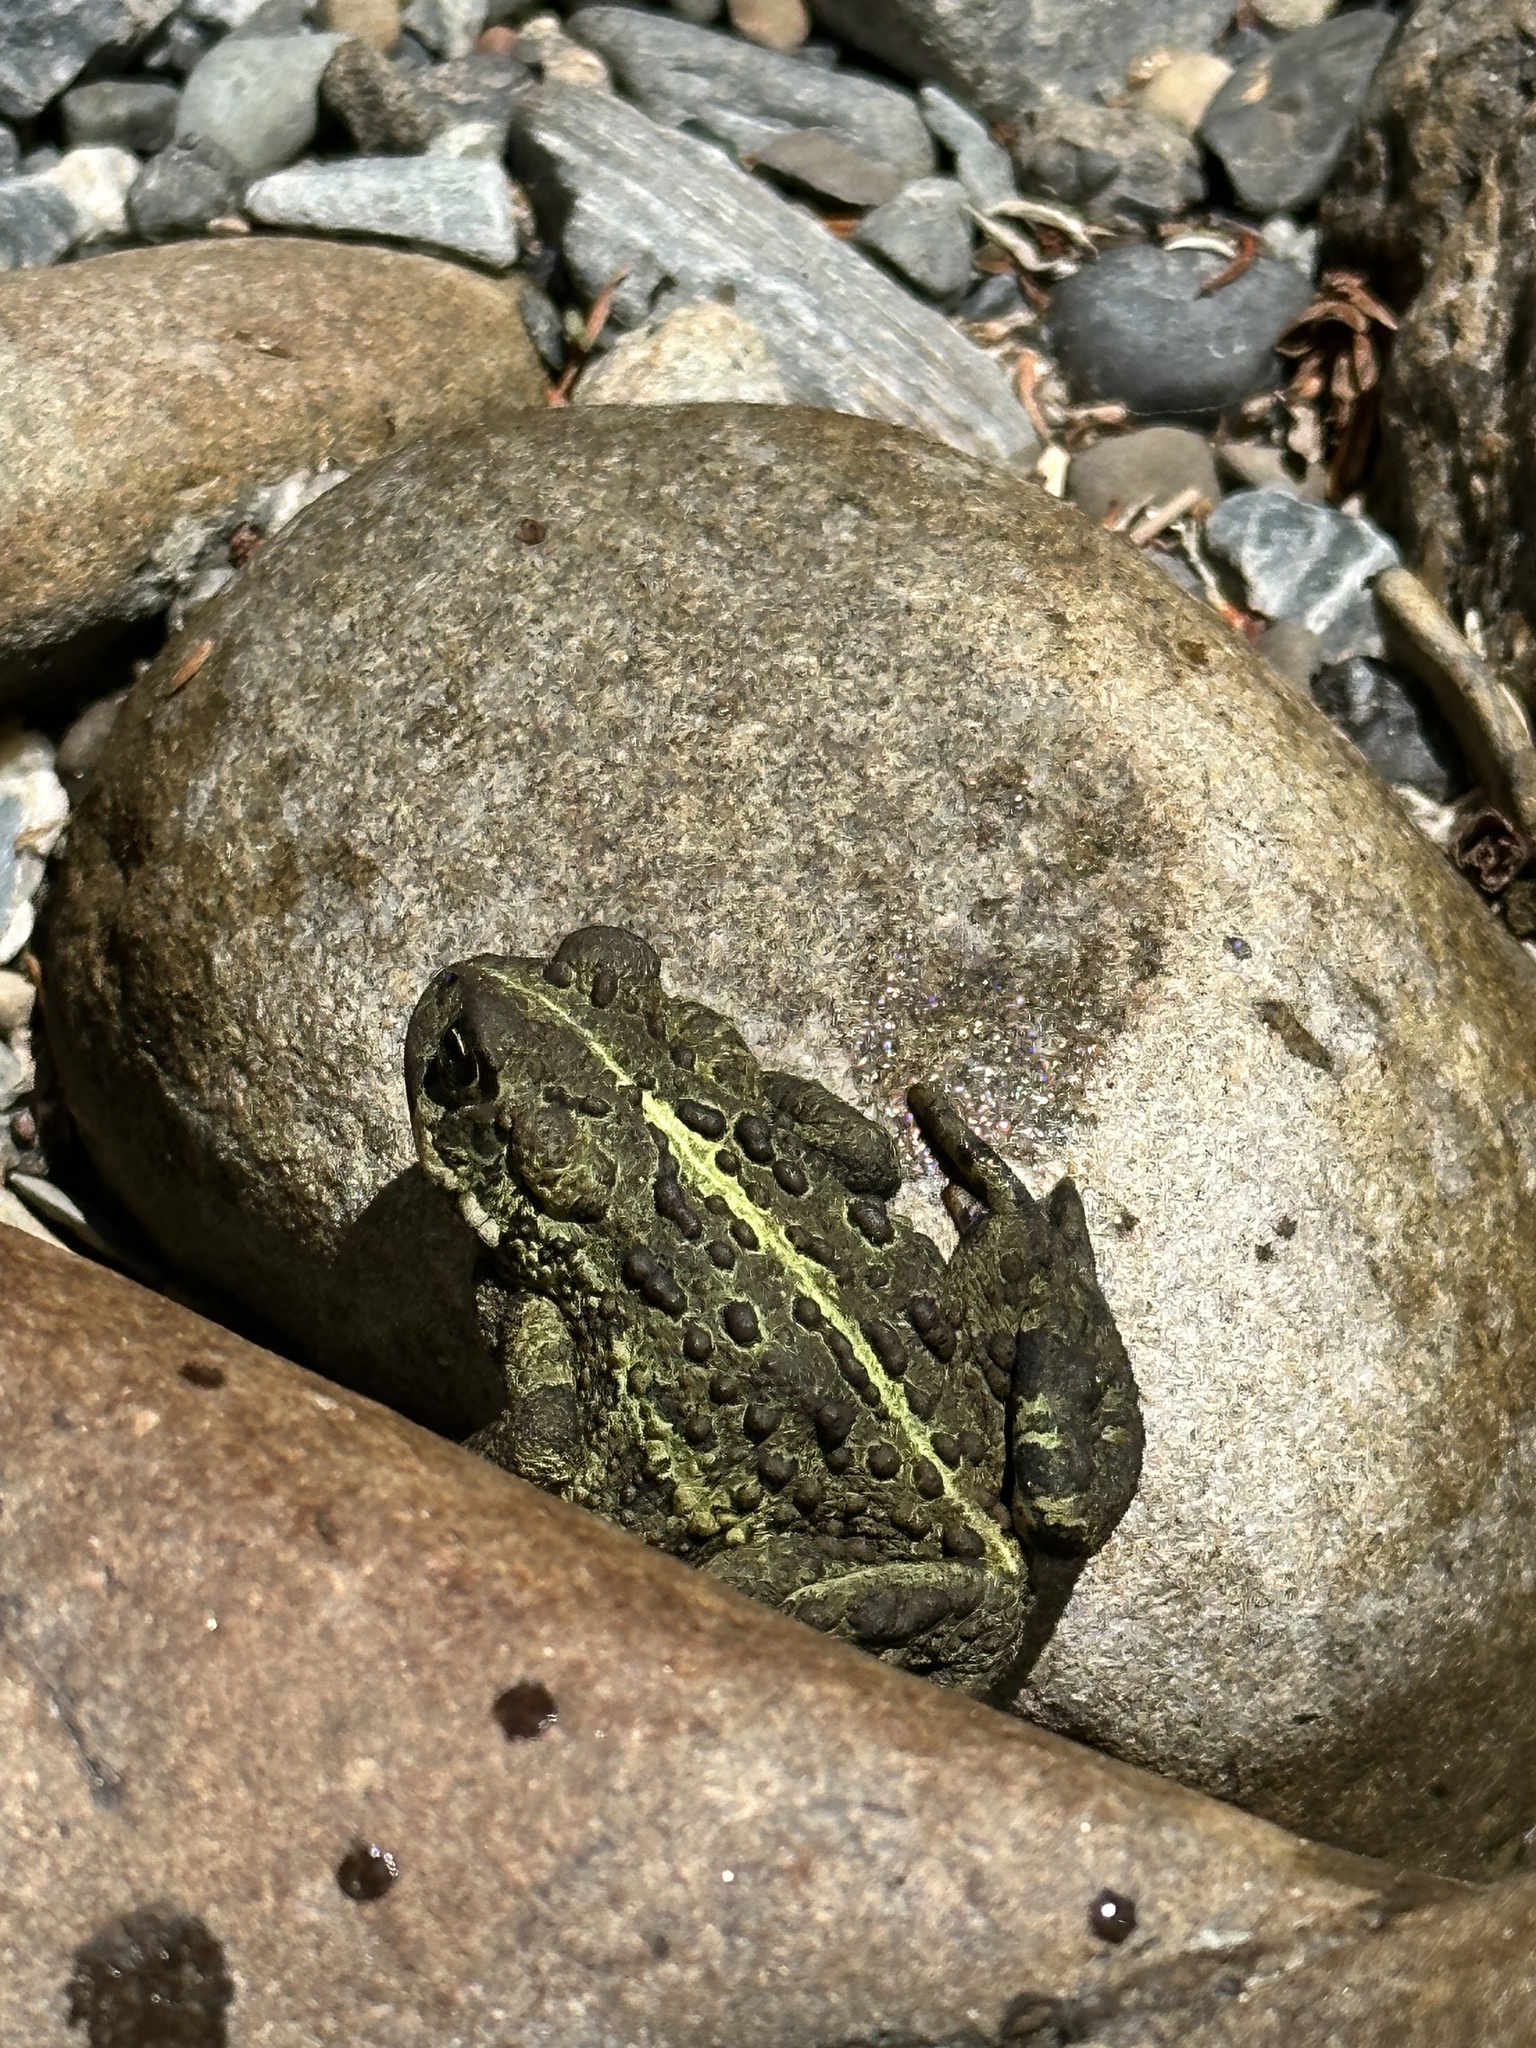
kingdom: Animalia
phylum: Chordata
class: Amphibia
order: Anura
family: Bufonidae
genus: Anaxyrus
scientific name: Anaxyrus boreas
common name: Western toad
